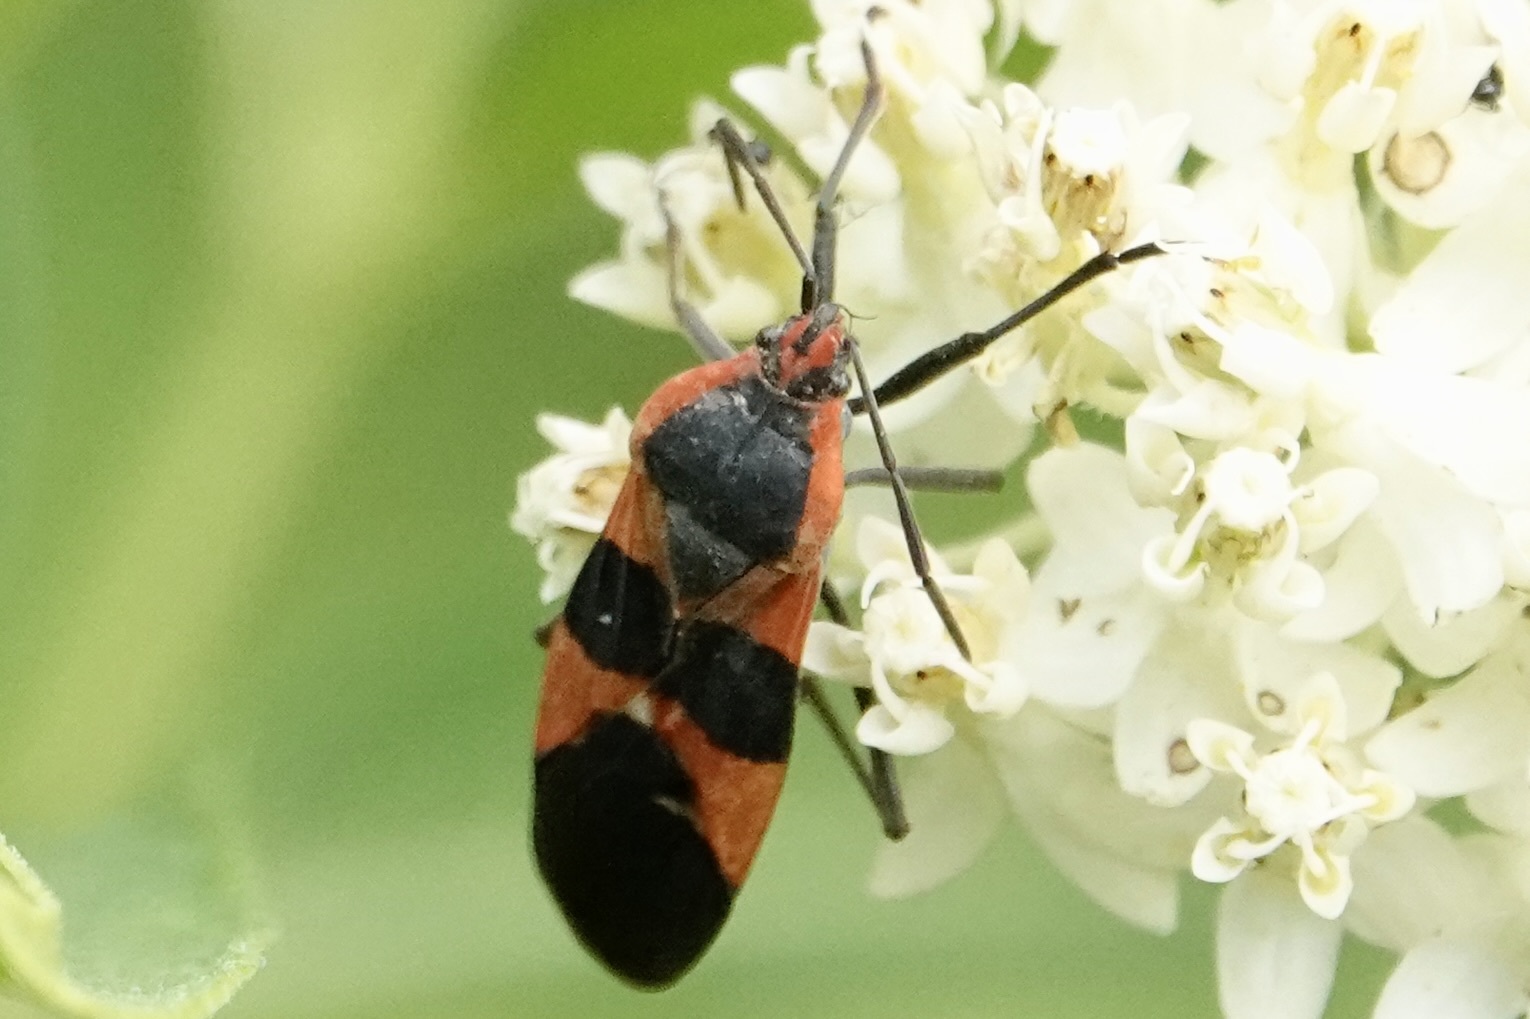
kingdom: Animalia
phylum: Arthropoda
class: Insecta
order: Hemiptera
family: Lygaeidae
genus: Oncopeltus
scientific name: Oncopeltus fasciatus
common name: Large milkweed bug
